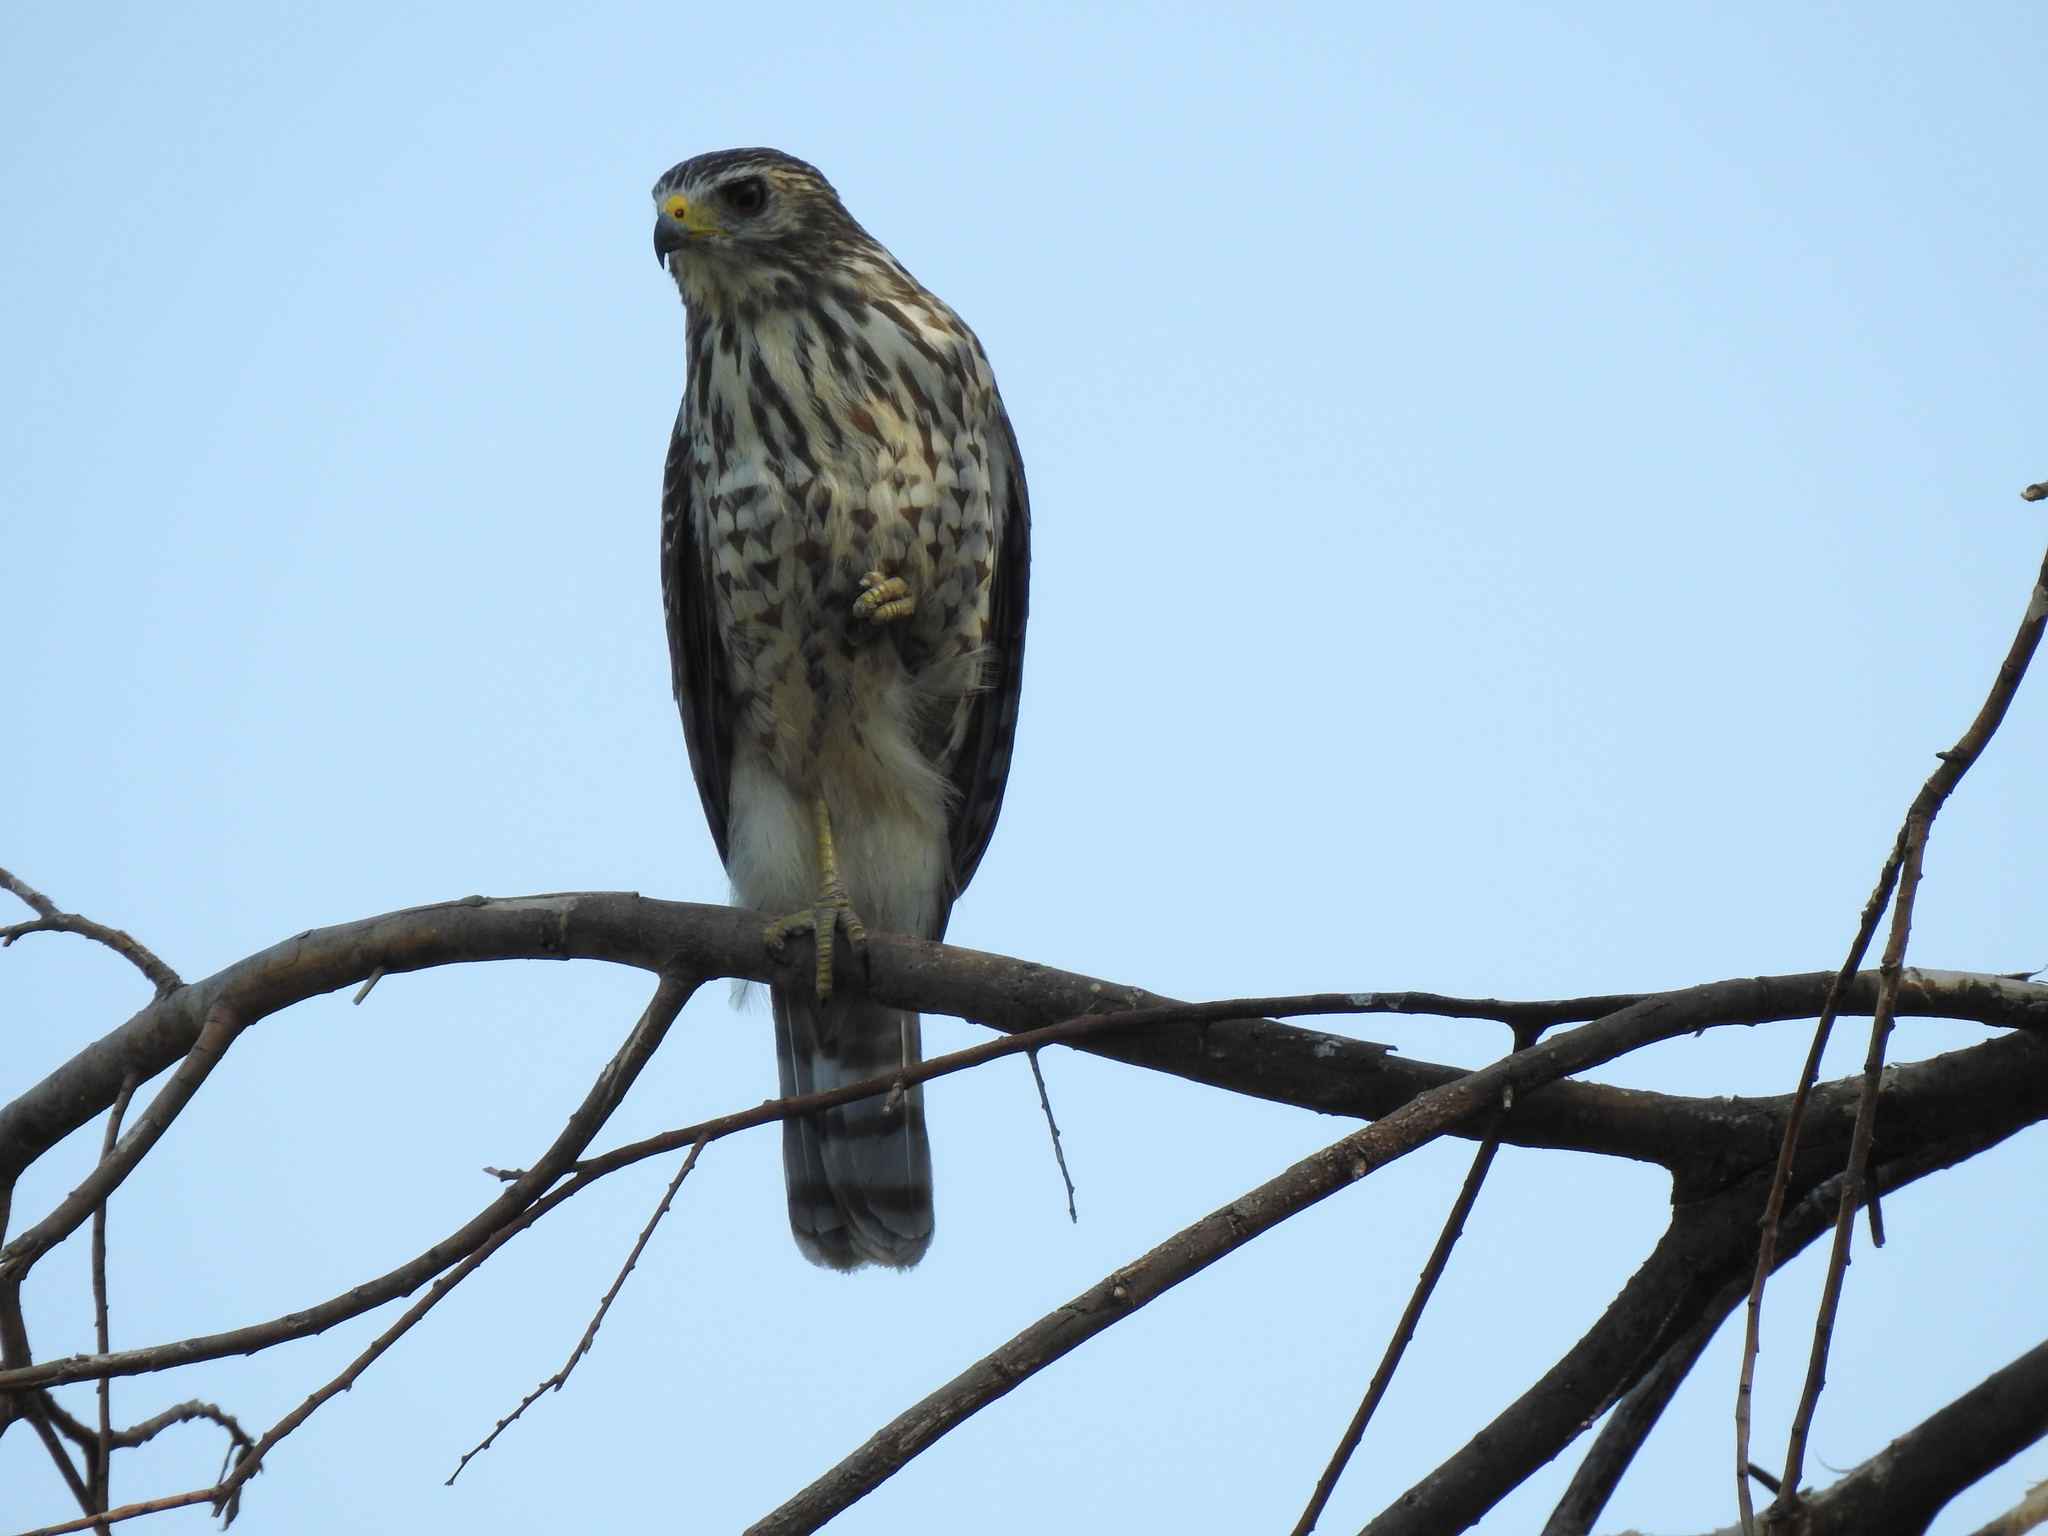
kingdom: Animalia
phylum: Chordata
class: Aves
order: Accipitriformes
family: Accipitridae
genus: Rupornis
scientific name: Rupornis magnirostris
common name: Roadside hawk
